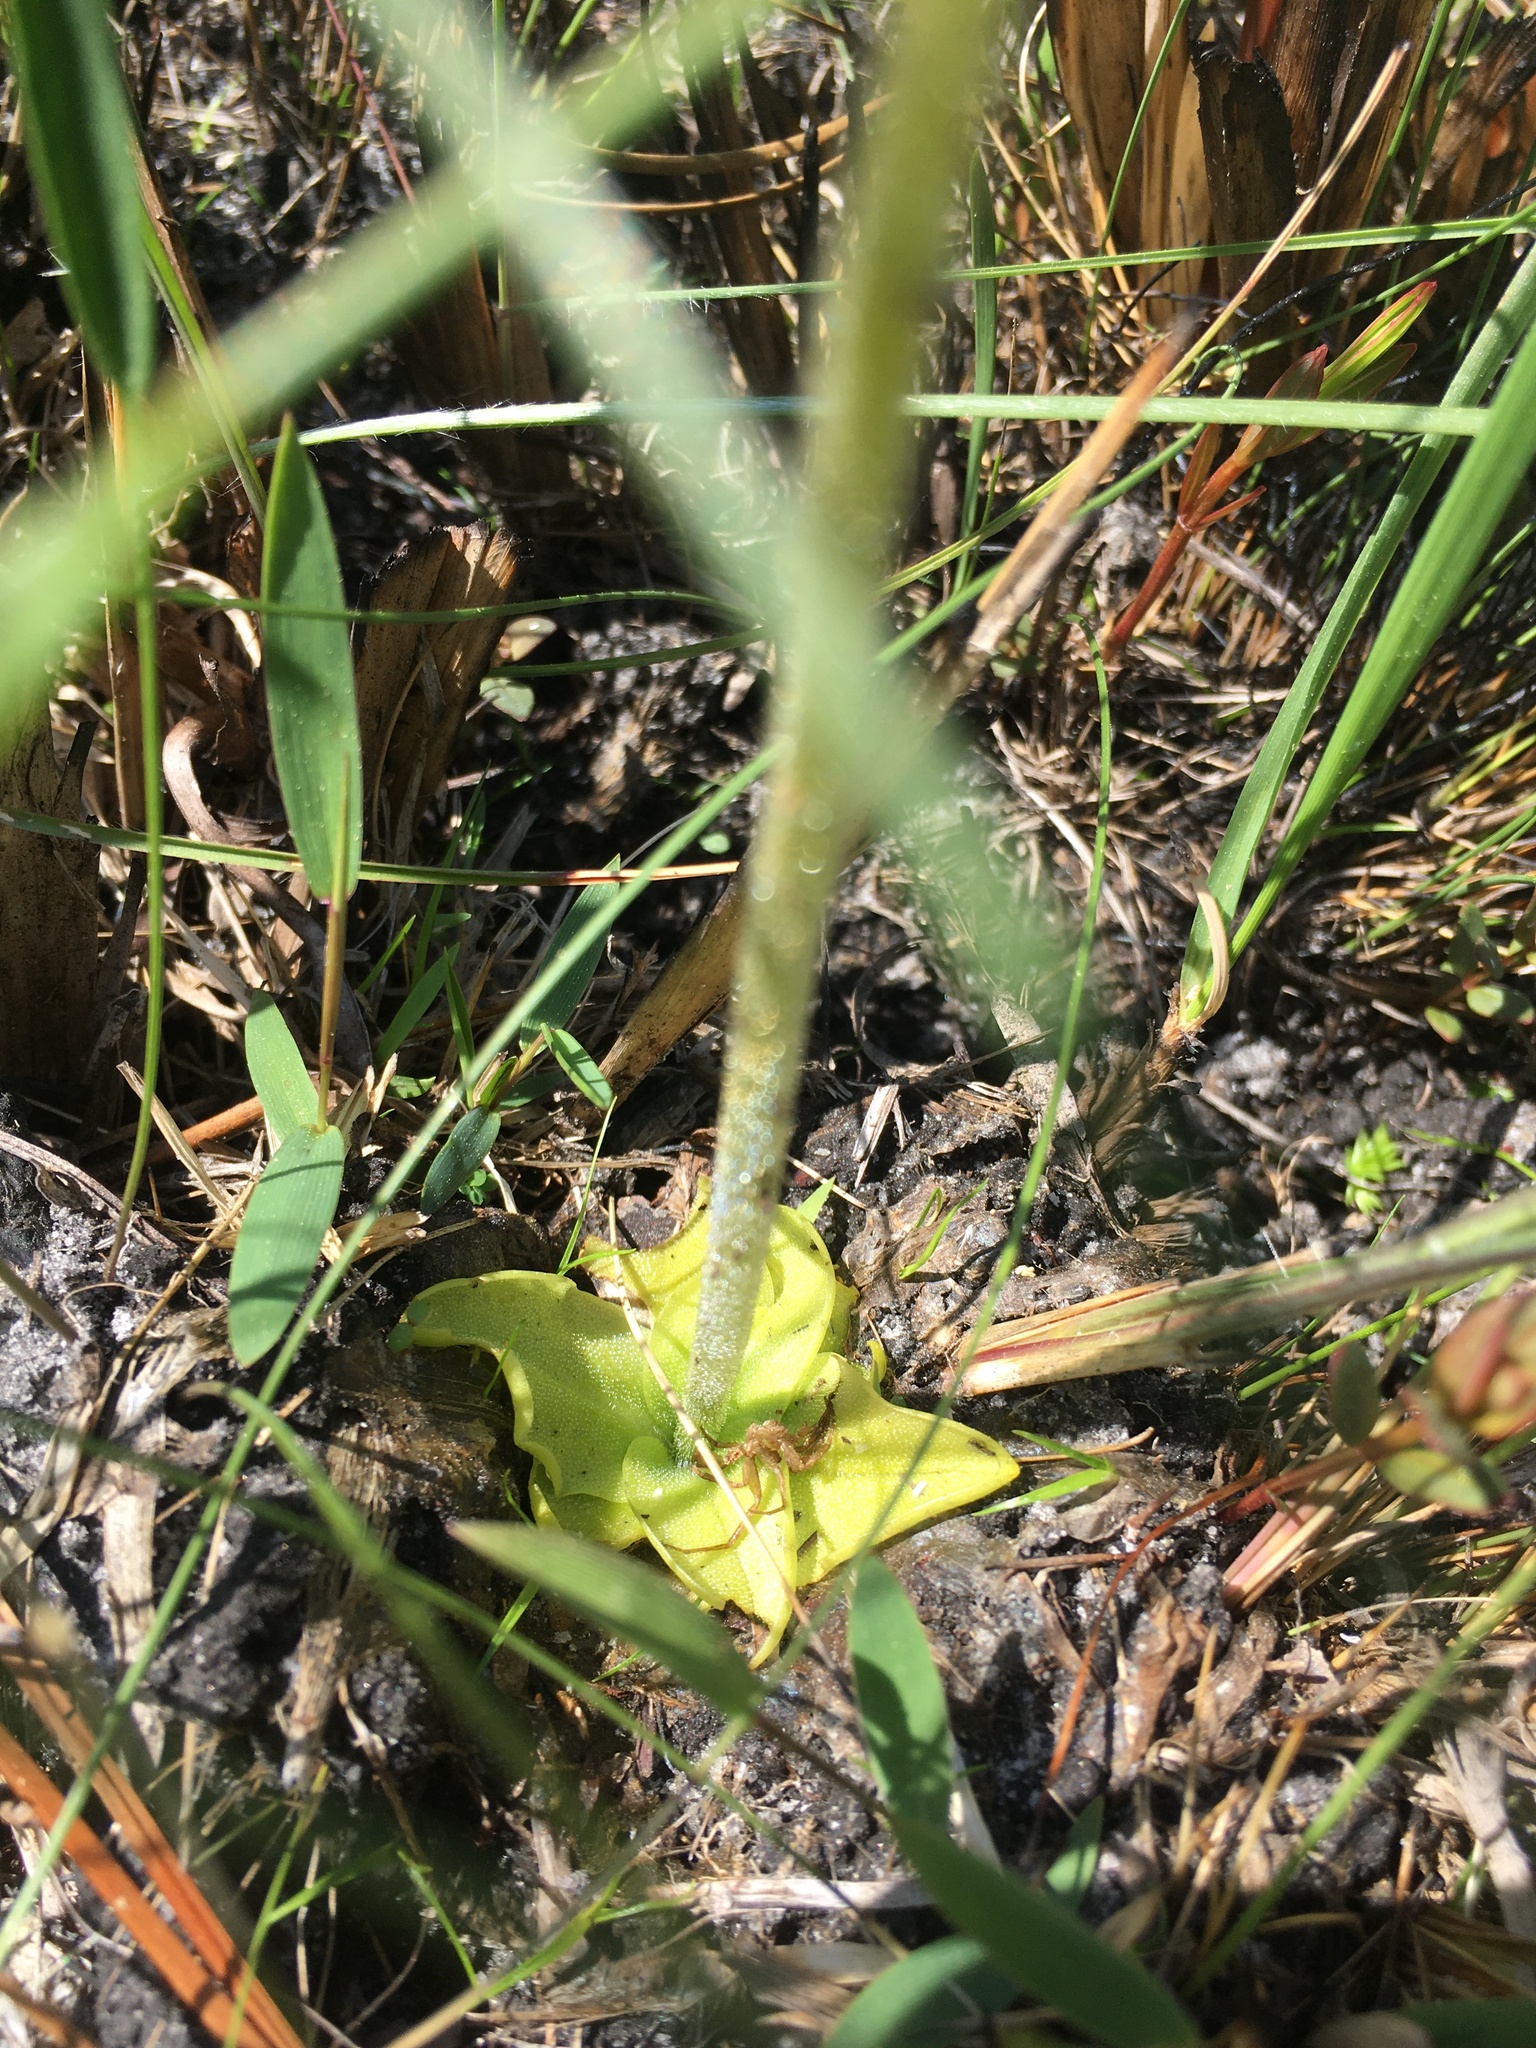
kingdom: Plantae
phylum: Tracheophyta
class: Magnoliopsida
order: Lamiales
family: Lentibulariaceae
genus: Pinguicula
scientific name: Pinguicula lutea
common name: Yellow butterwort
